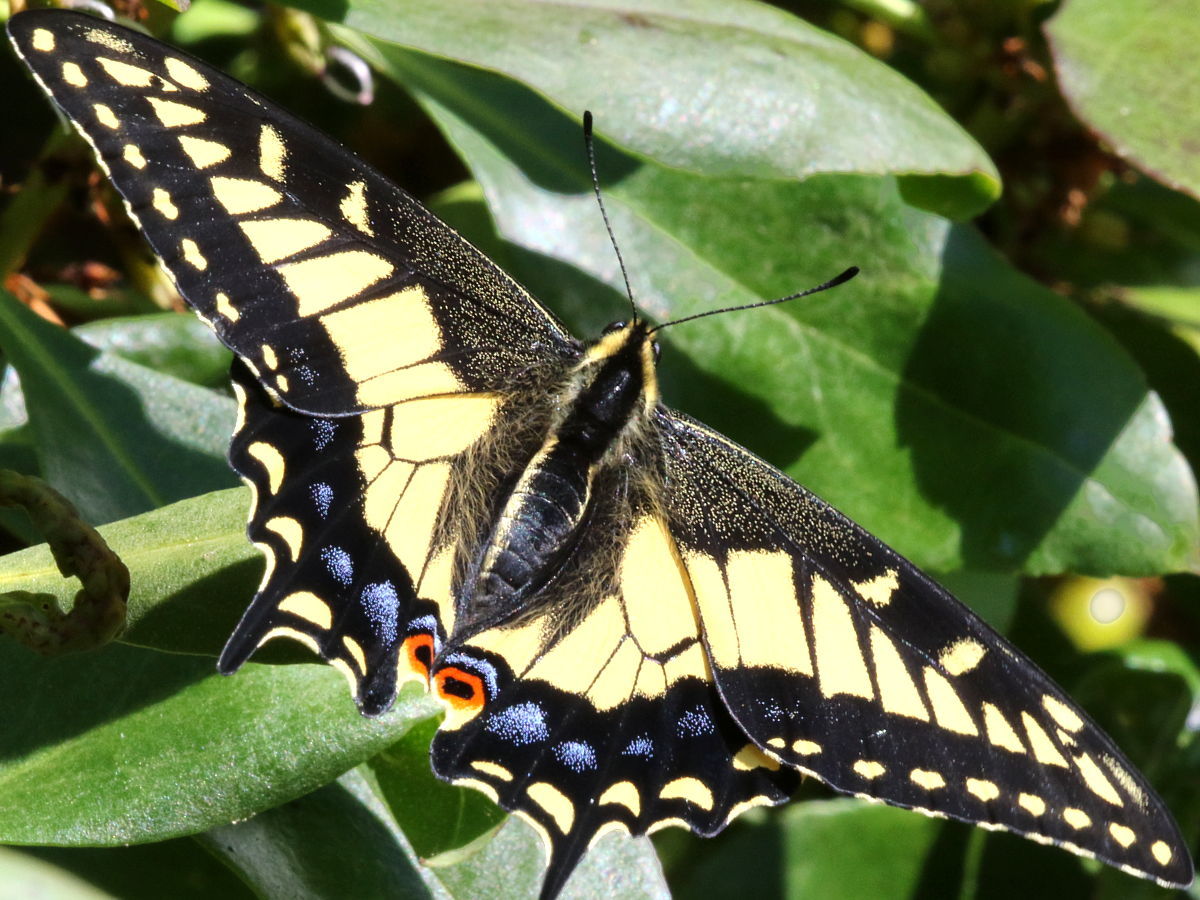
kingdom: Animalia
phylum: Arthropoda
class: Insecta
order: Lepidoptera
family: Papilionidae
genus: Papilio
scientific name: Papilio zelicaon
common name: Anise swallowtail
